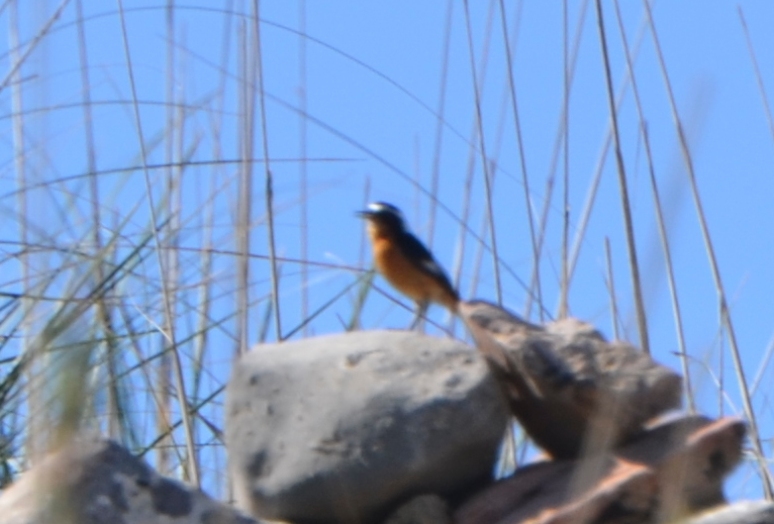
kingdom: Animalia
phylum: Chordata
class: Aves
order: Passeriformes
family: Muscicapidae
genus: Phoenicurus
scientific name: Phoenicurus moussieri
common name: Moussier's redstart
